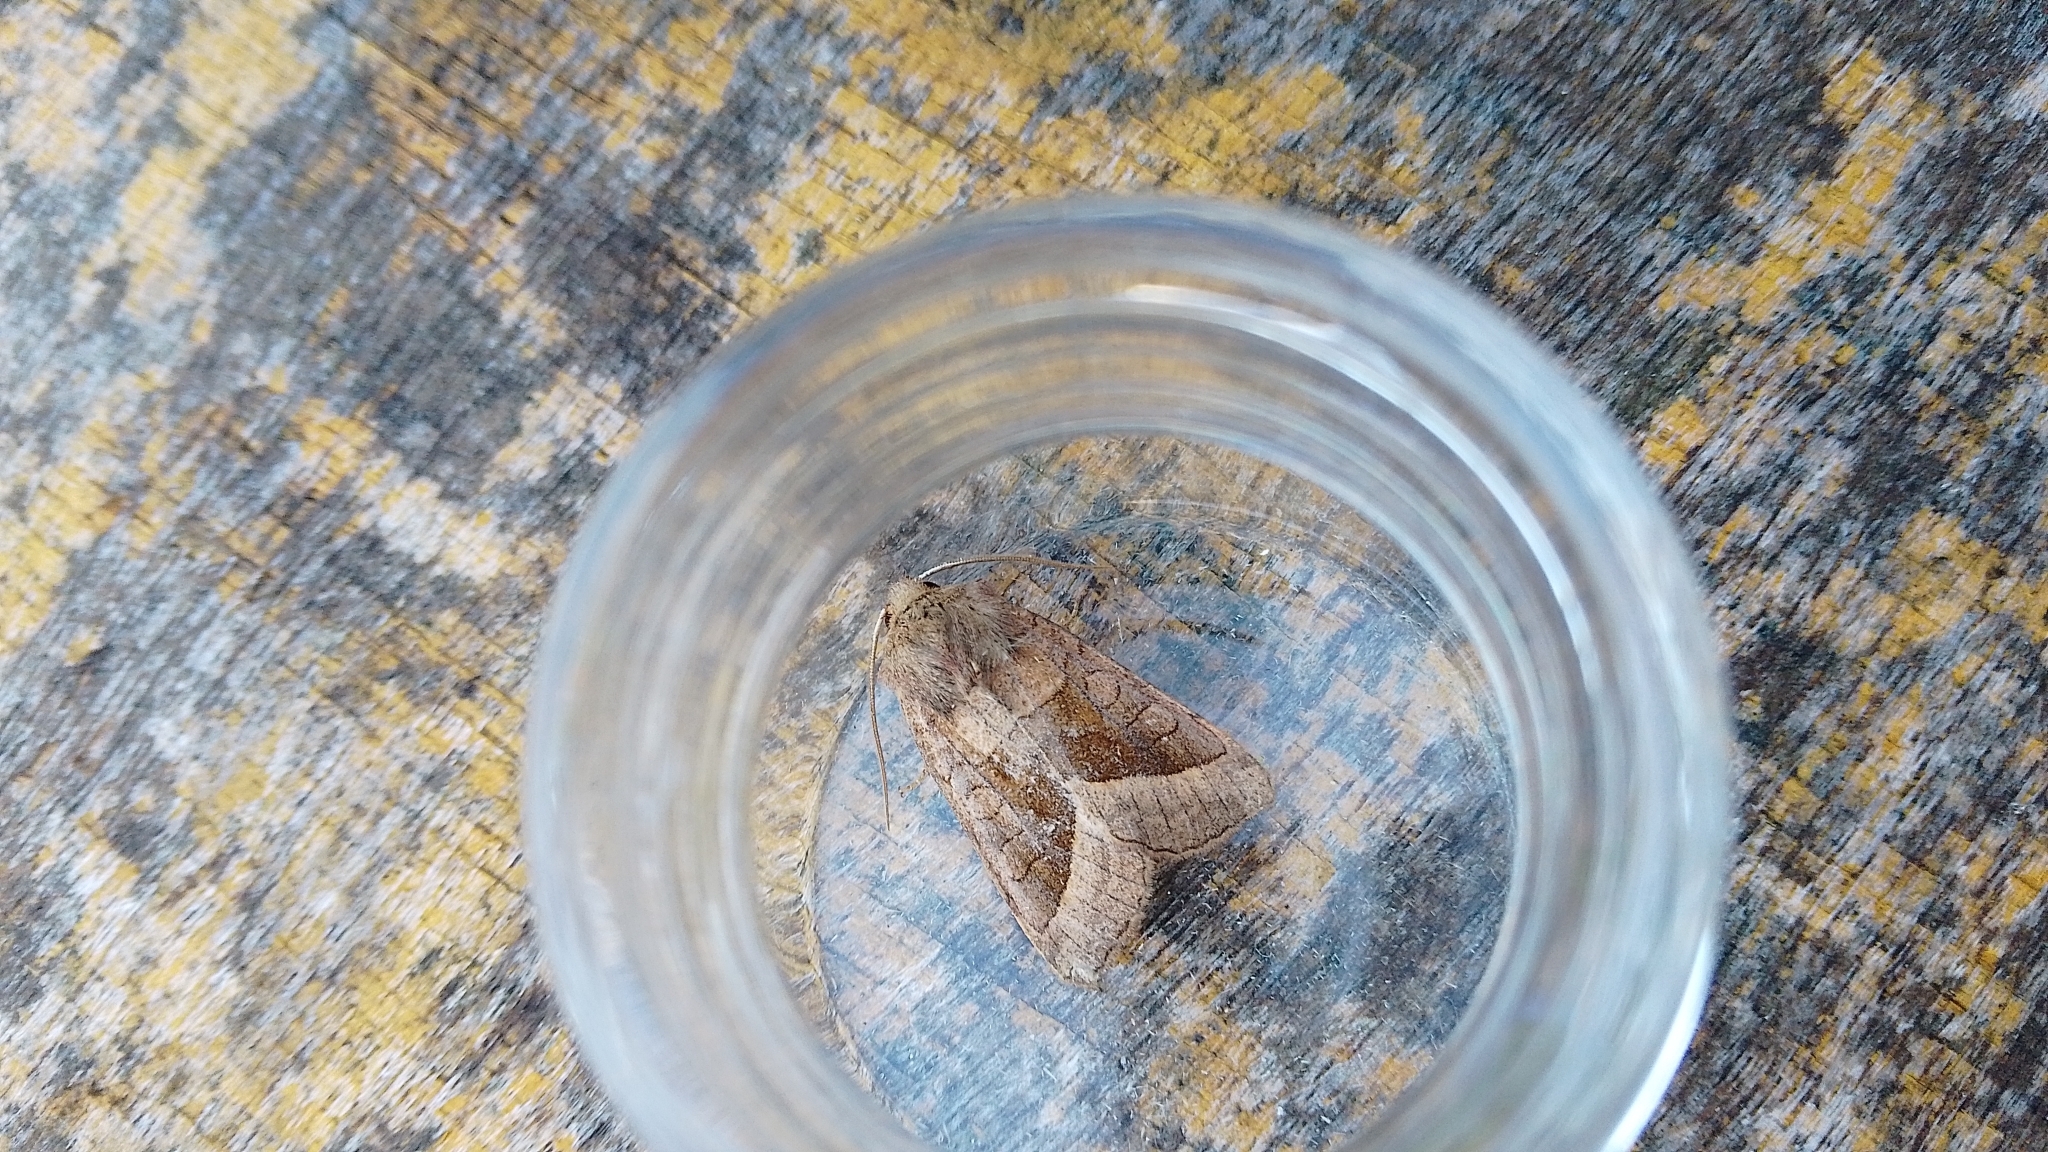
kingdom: Animalia
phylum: Arthropoda
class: Insecta
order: Lepidoptera
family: Noctuidae
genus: Hydraecia
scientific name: Hydraecia micacea
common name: Rosy rustic
